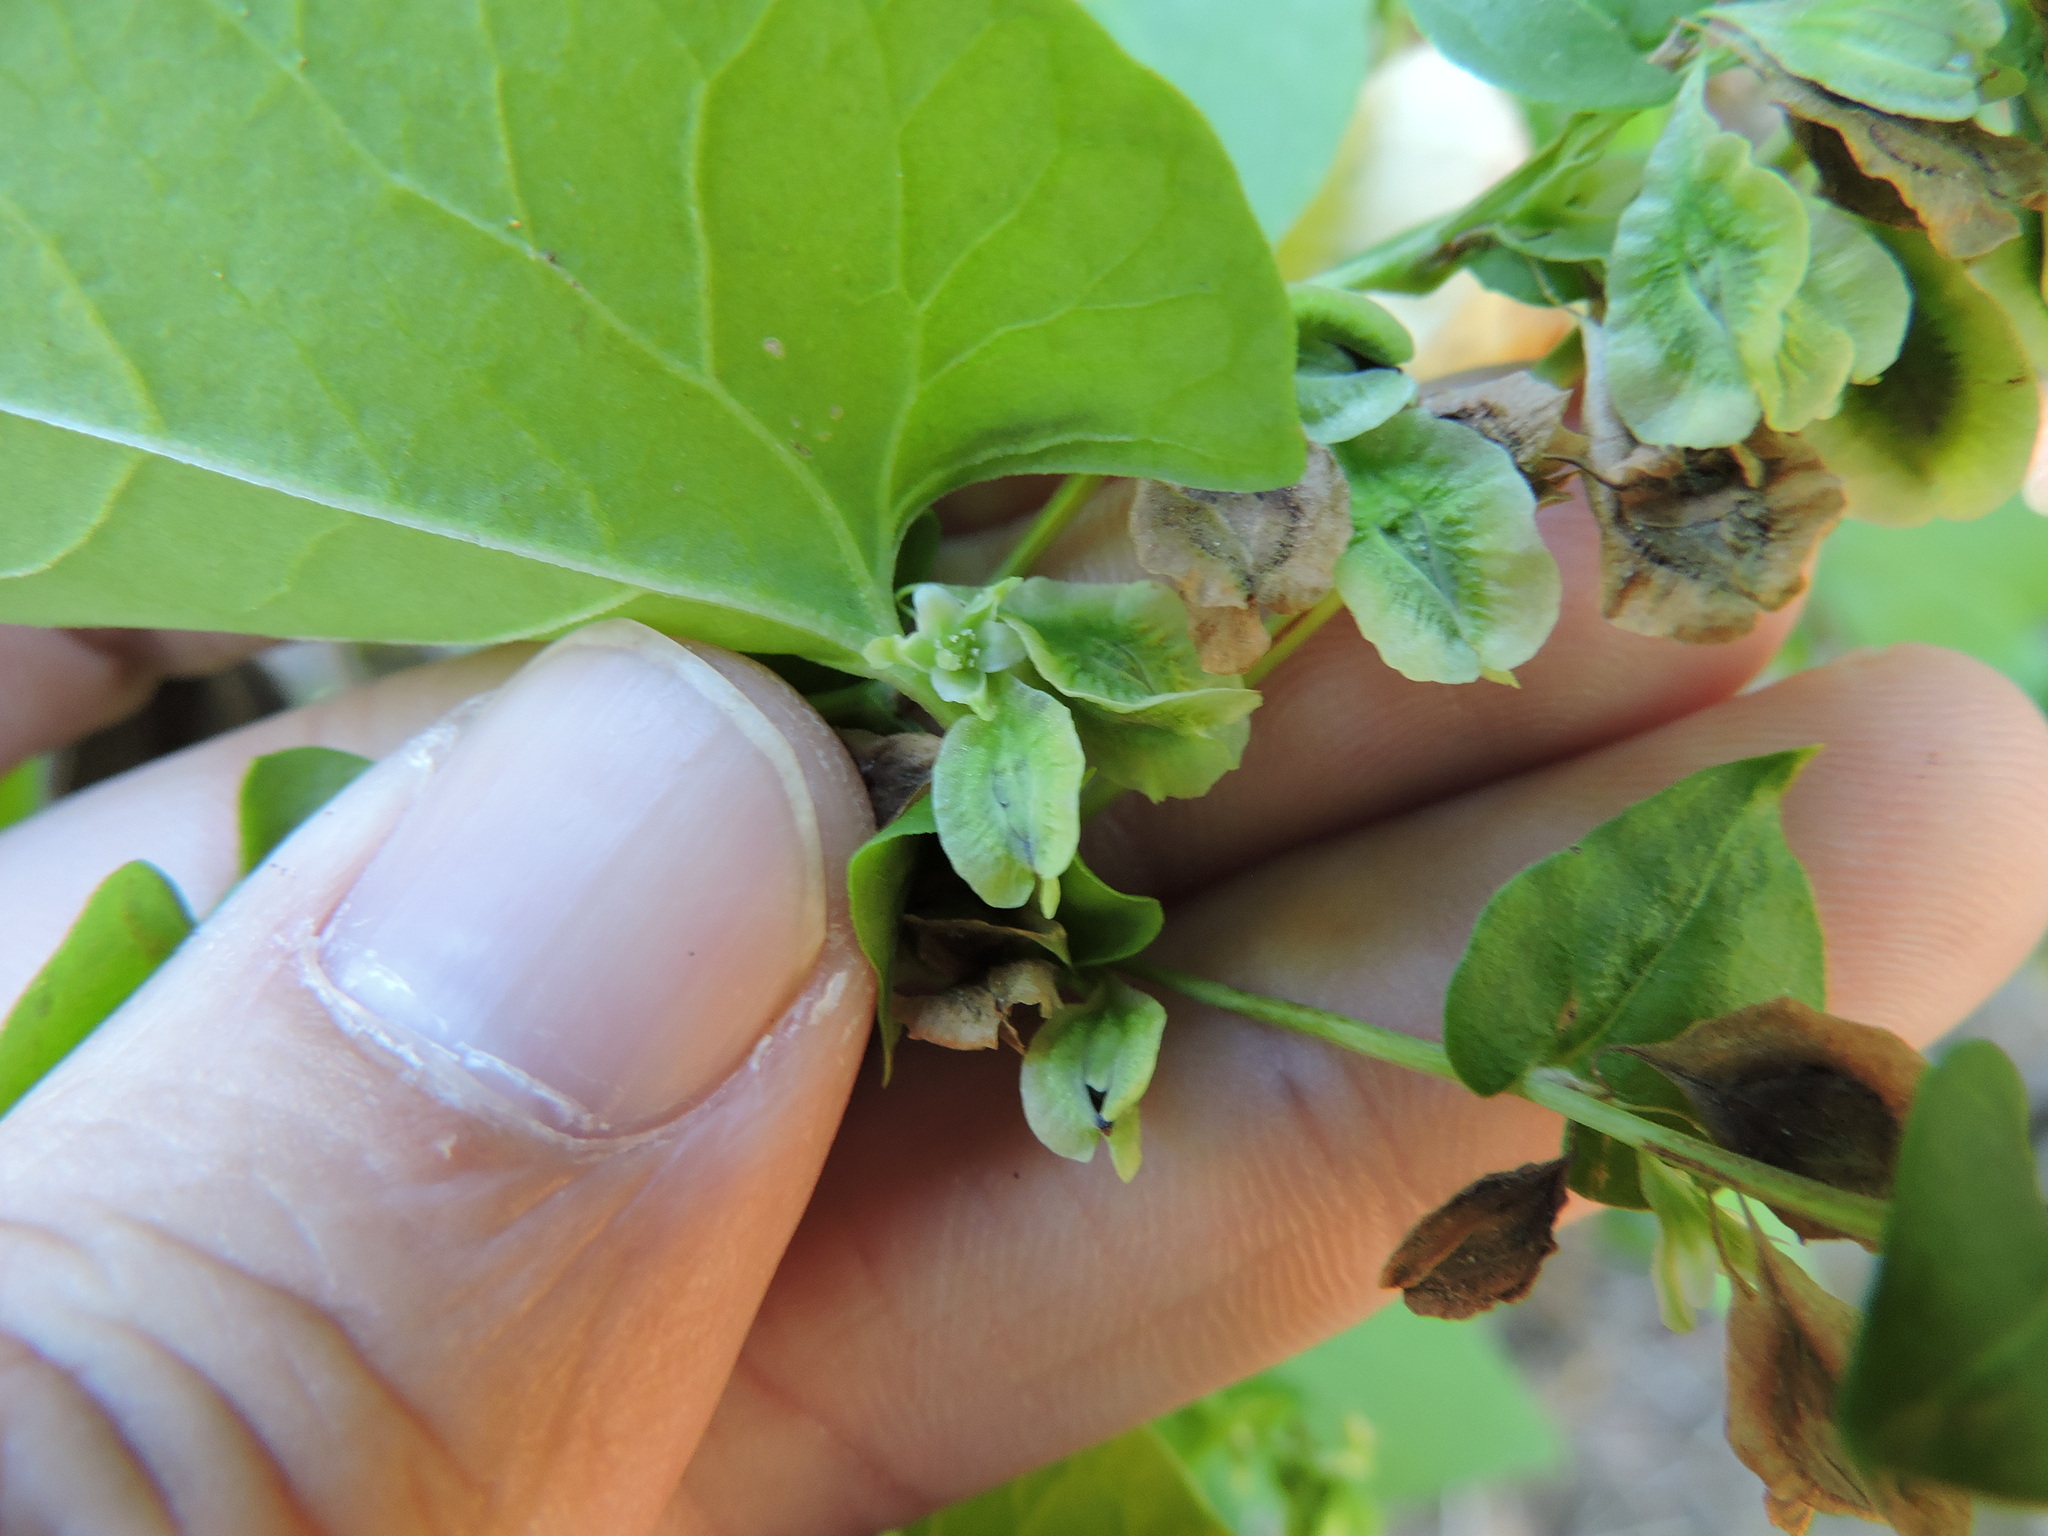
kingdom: Plantae
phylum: Tracheophyta
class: Magnoliopsida
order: Caryophyllales
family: Polygonaceae
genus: Fallopia
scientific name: Fallopia scandens
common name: Climbing false buckwheat
